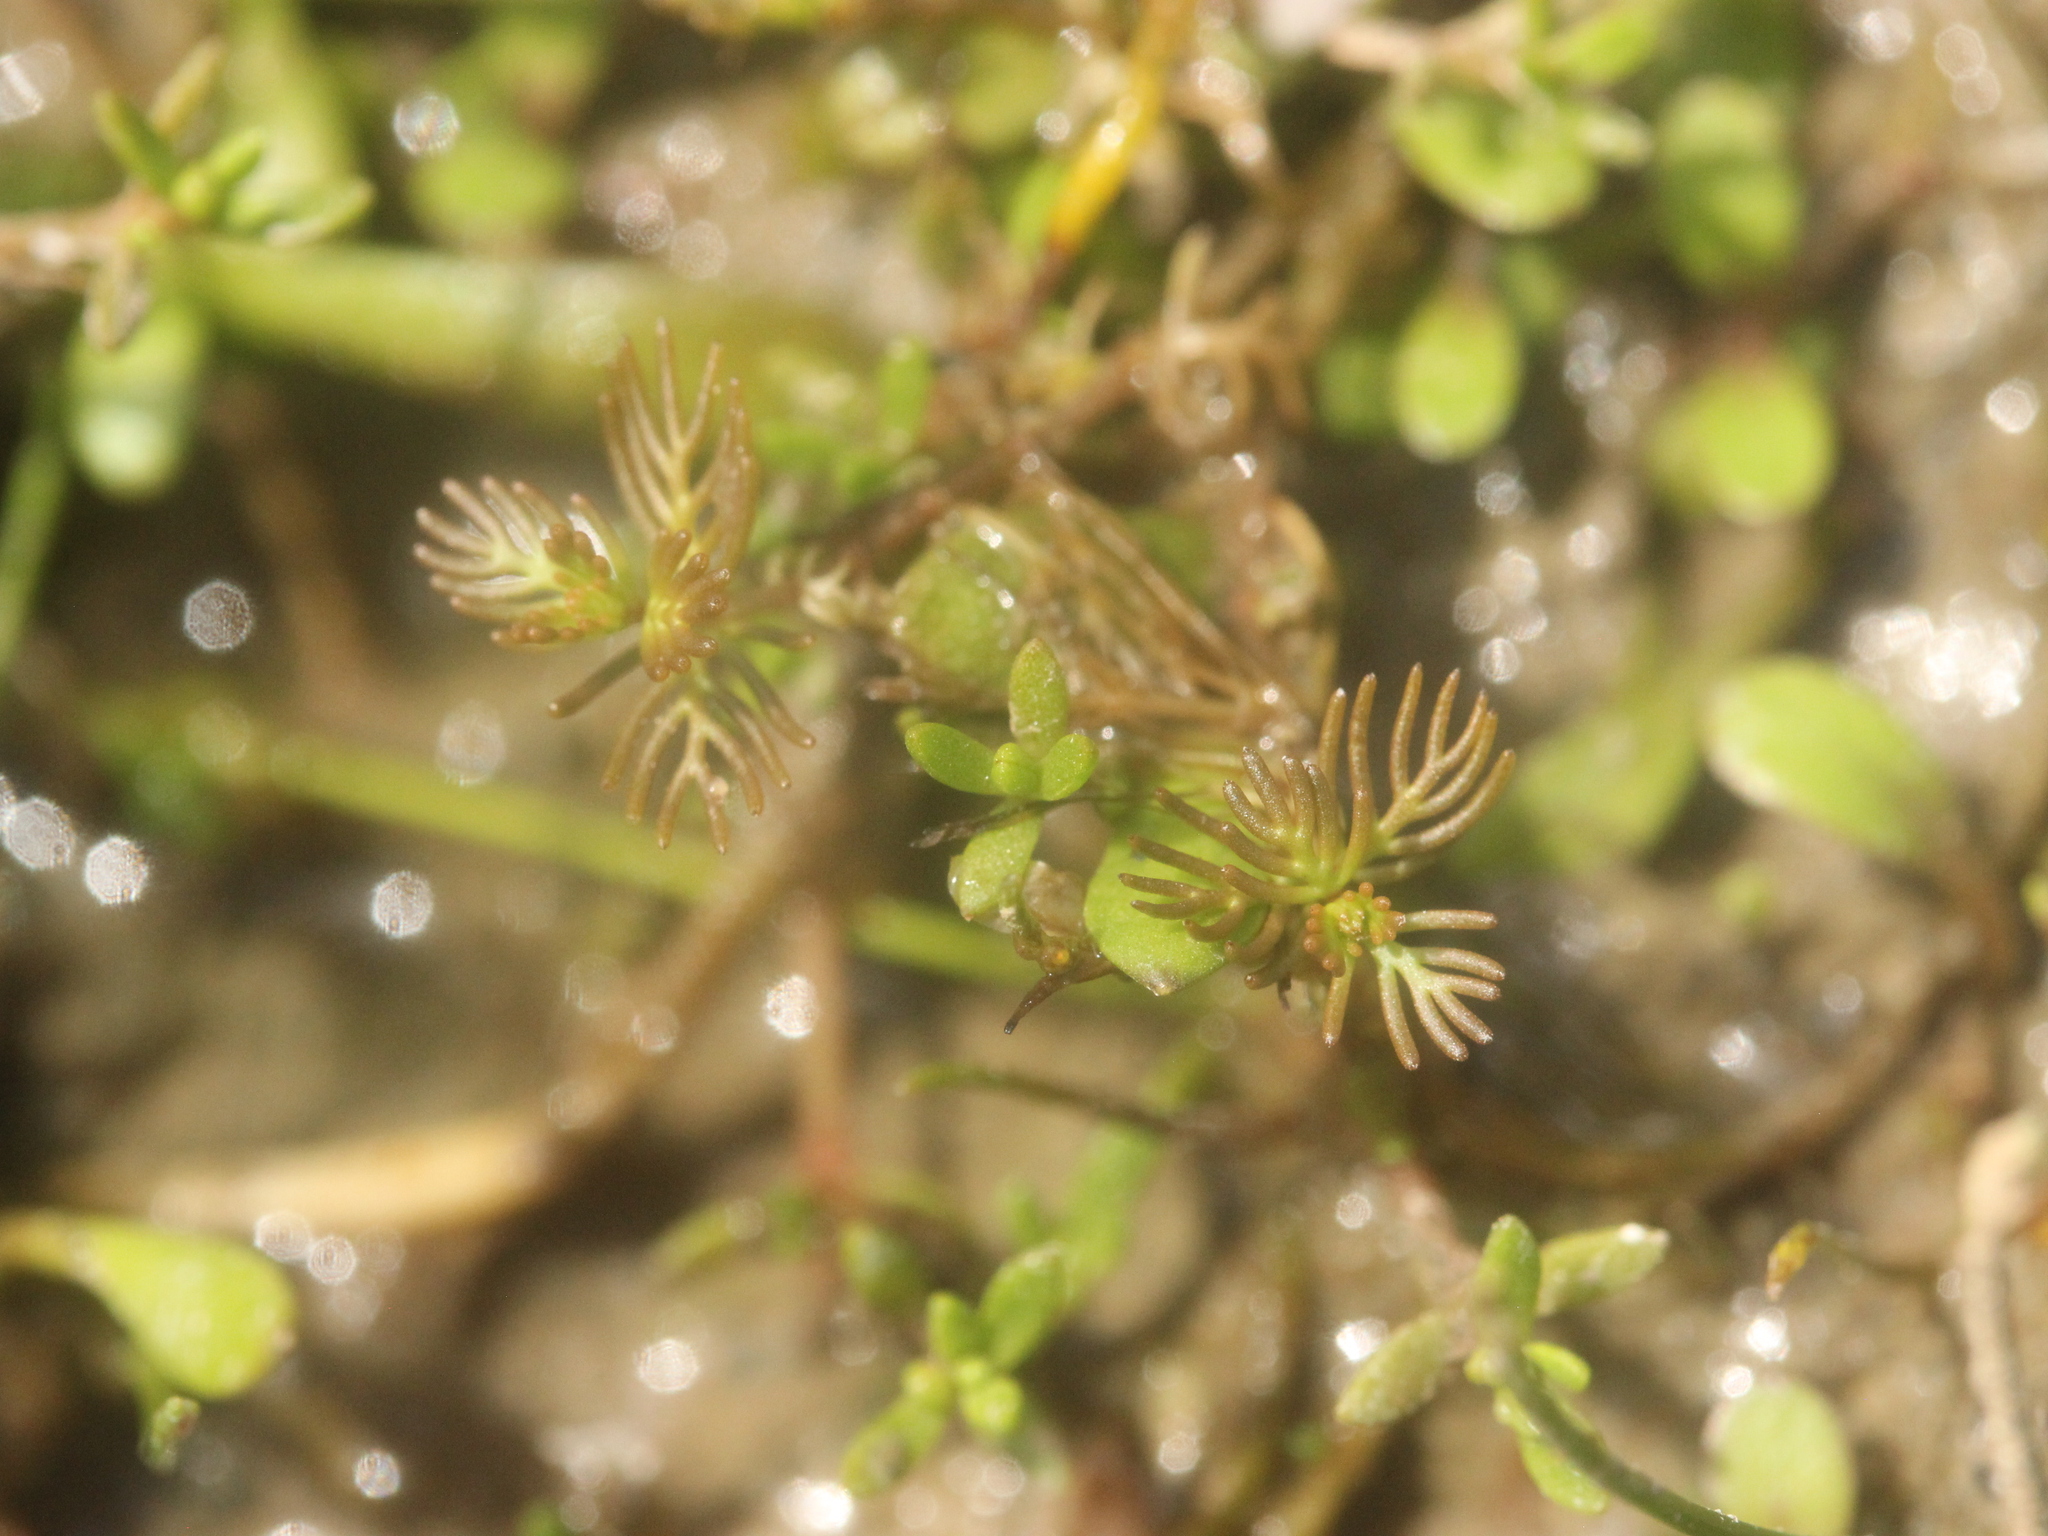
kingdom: Plantae
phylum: Tracheophyta
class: Magnoliopsida
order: Saxifragales
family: Haloragaceae
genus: Myriophyllum
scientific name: Myriophyllum triphyllum
